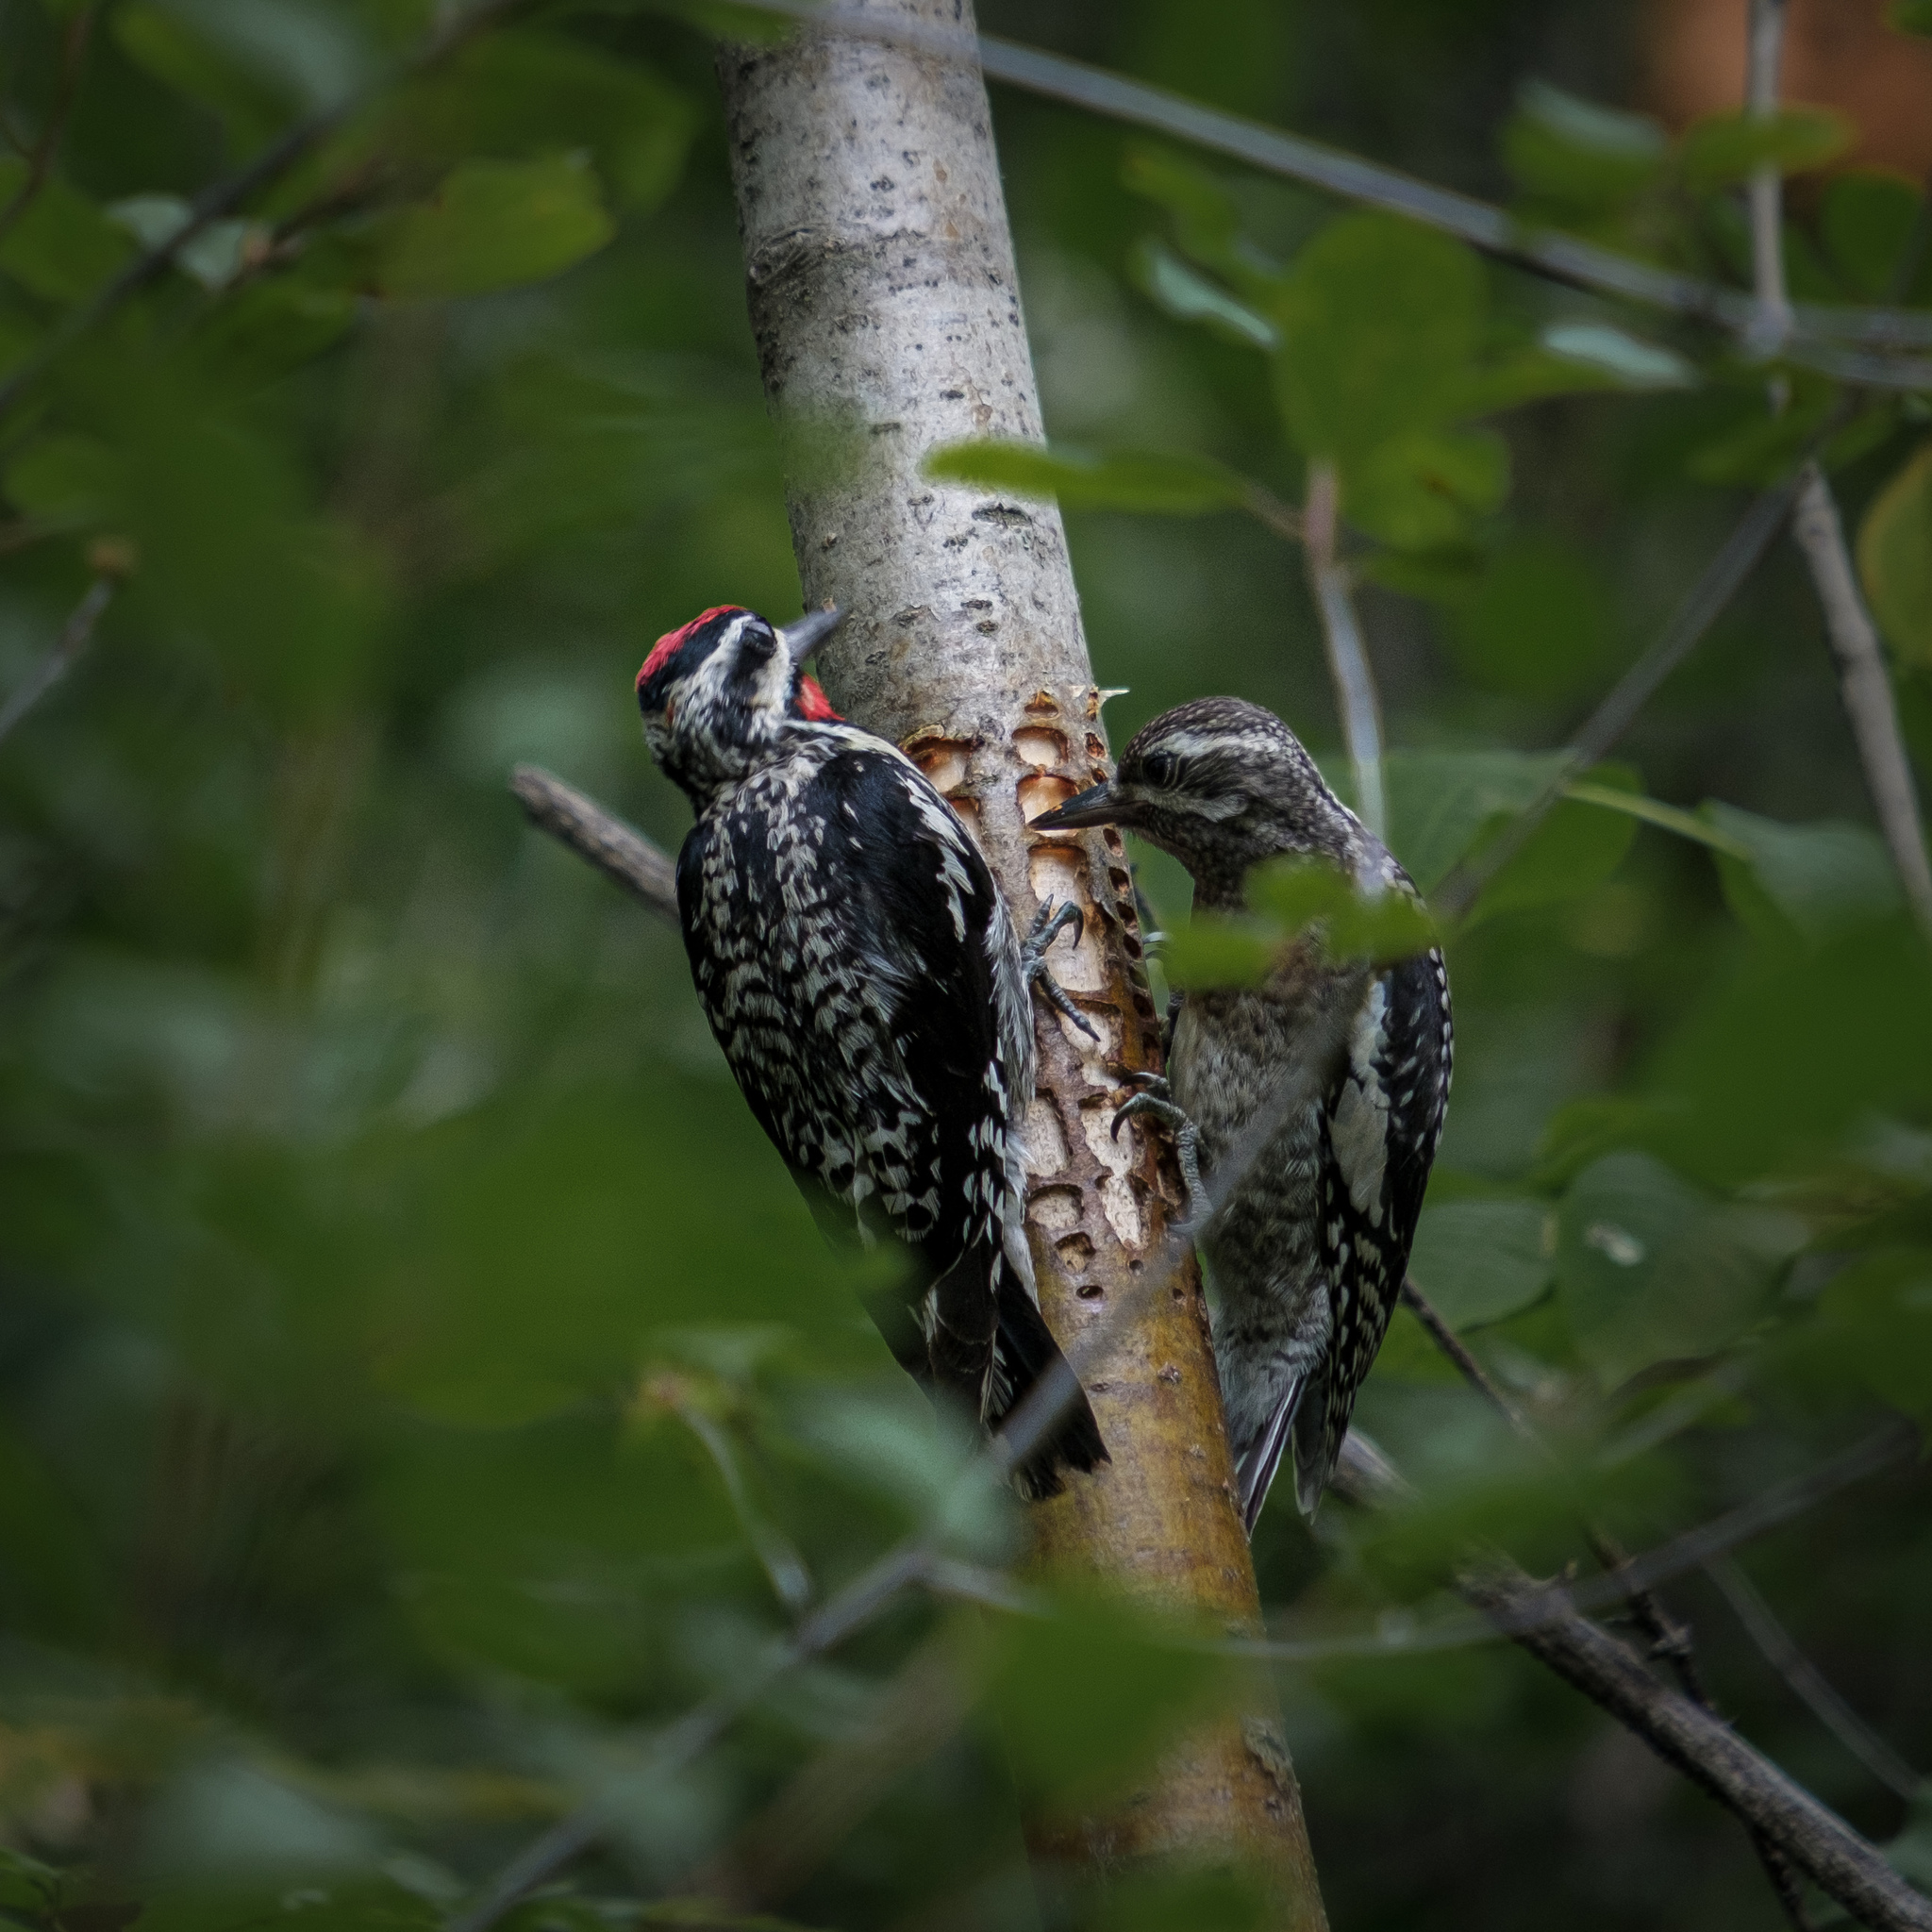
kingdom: Animalia
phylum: Chordata
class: Aves
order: Piciformes
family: Picidae
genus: Sphyrapicus
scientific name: Sphyrapicus varius
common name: Yellow-bellied sapsucker
